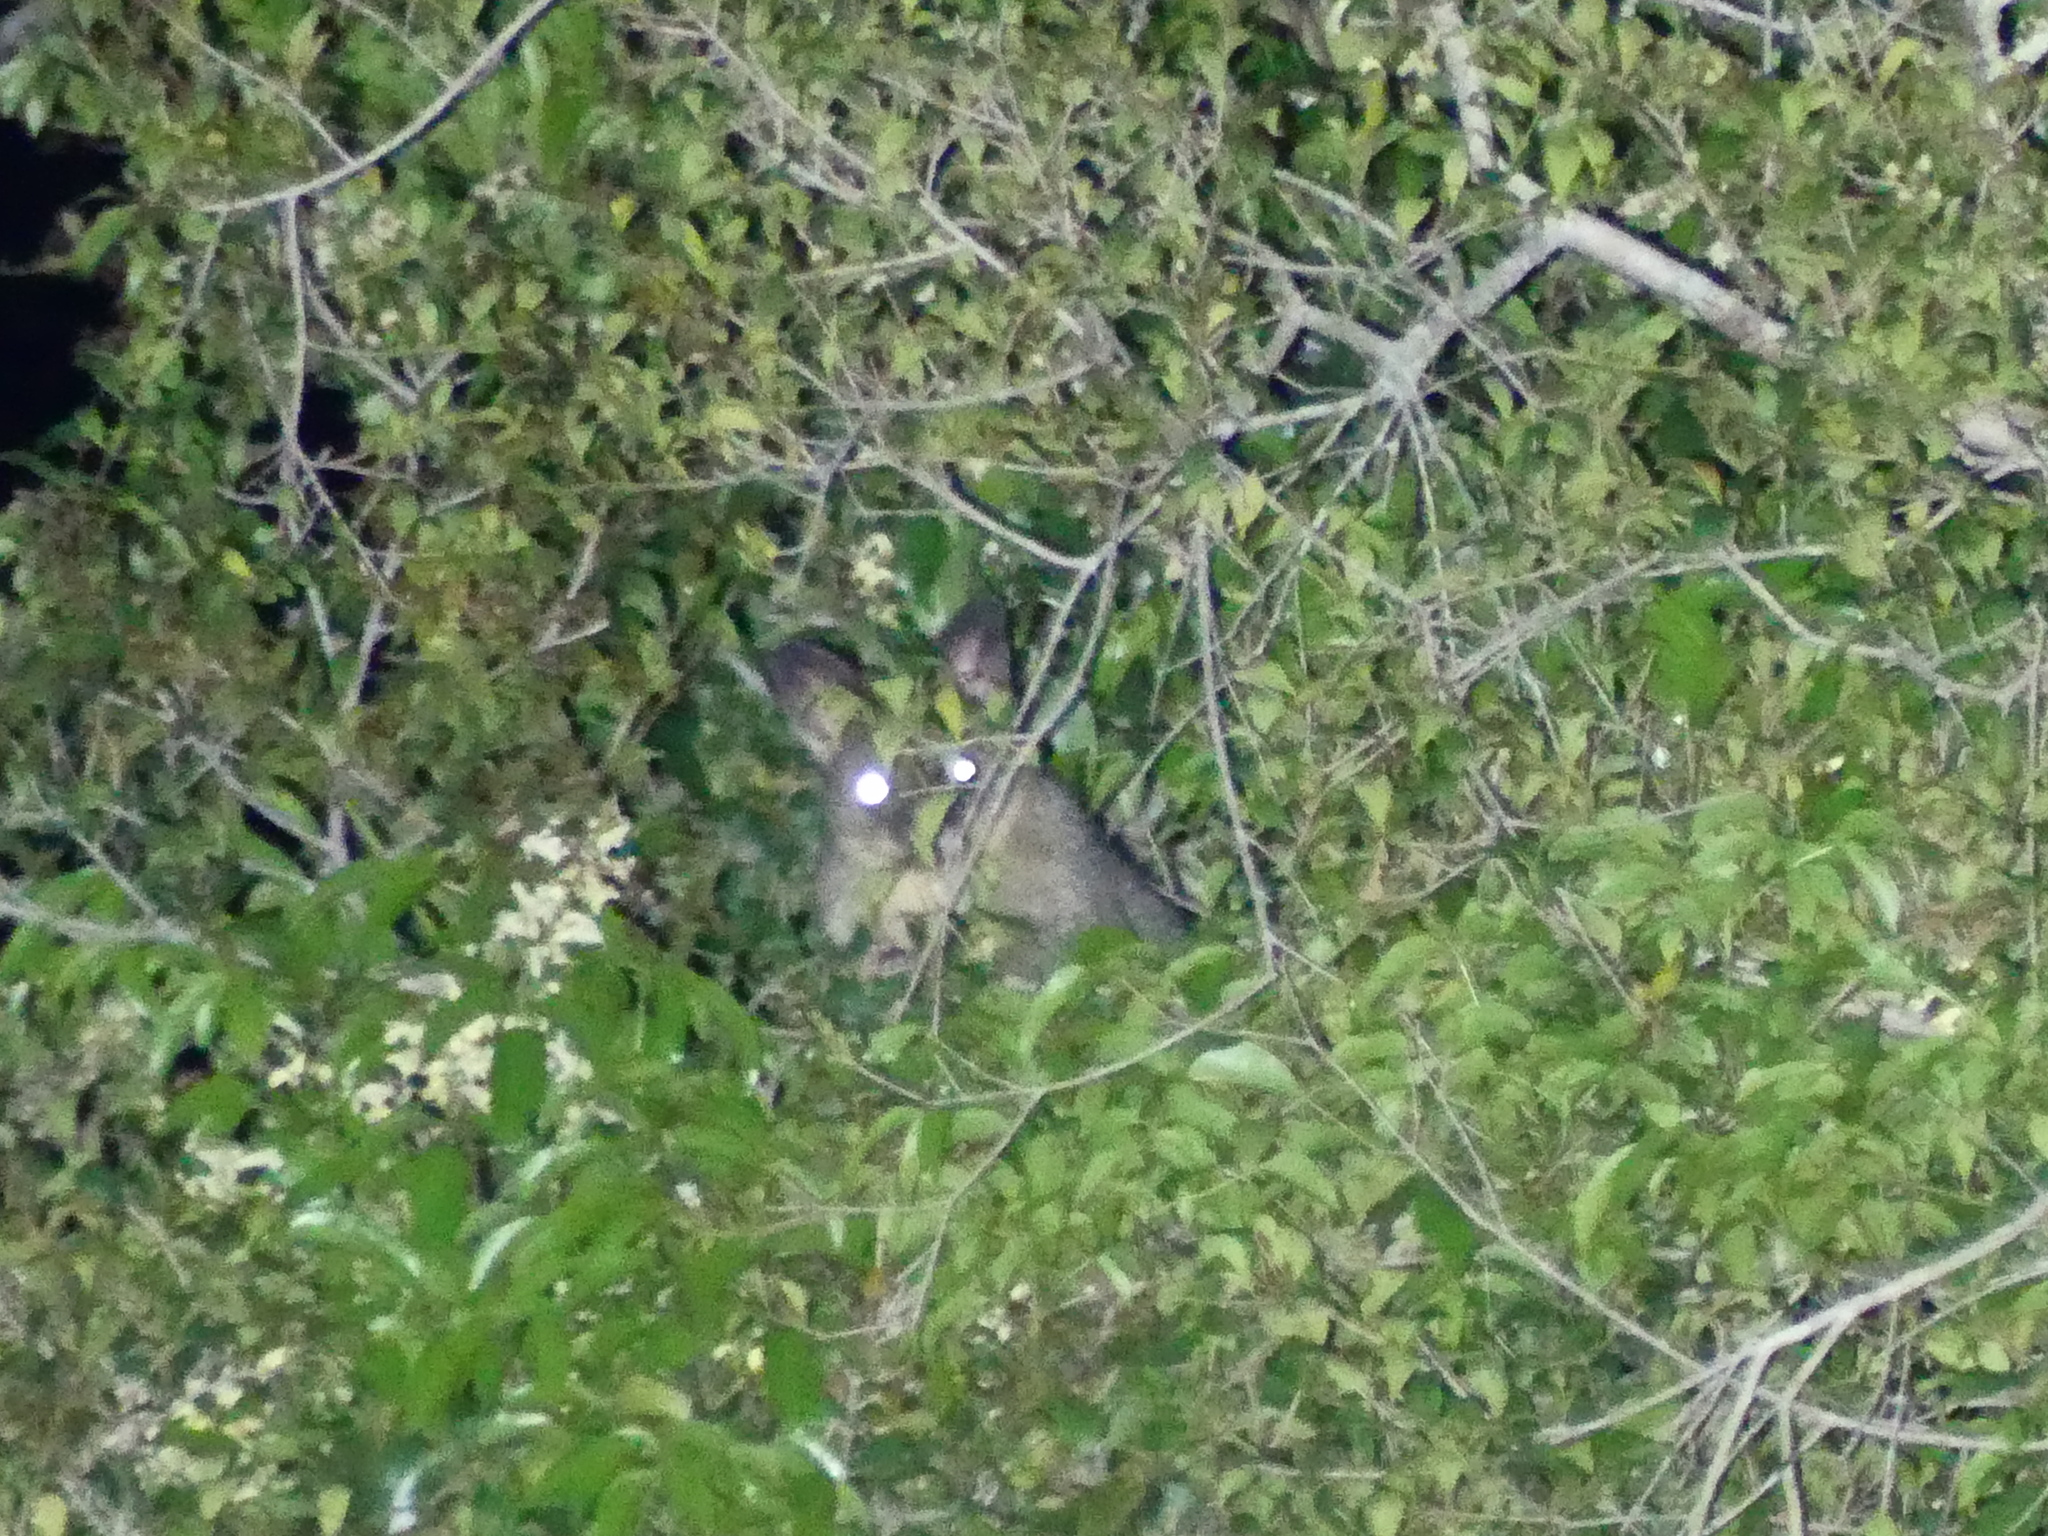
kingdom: Animalia
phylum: Chordata
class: Mammalia
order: Diprotodontia
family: Phalangeridae
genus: Trichosurus
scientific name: Trichosurus vulpecula
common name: Common brushtail
